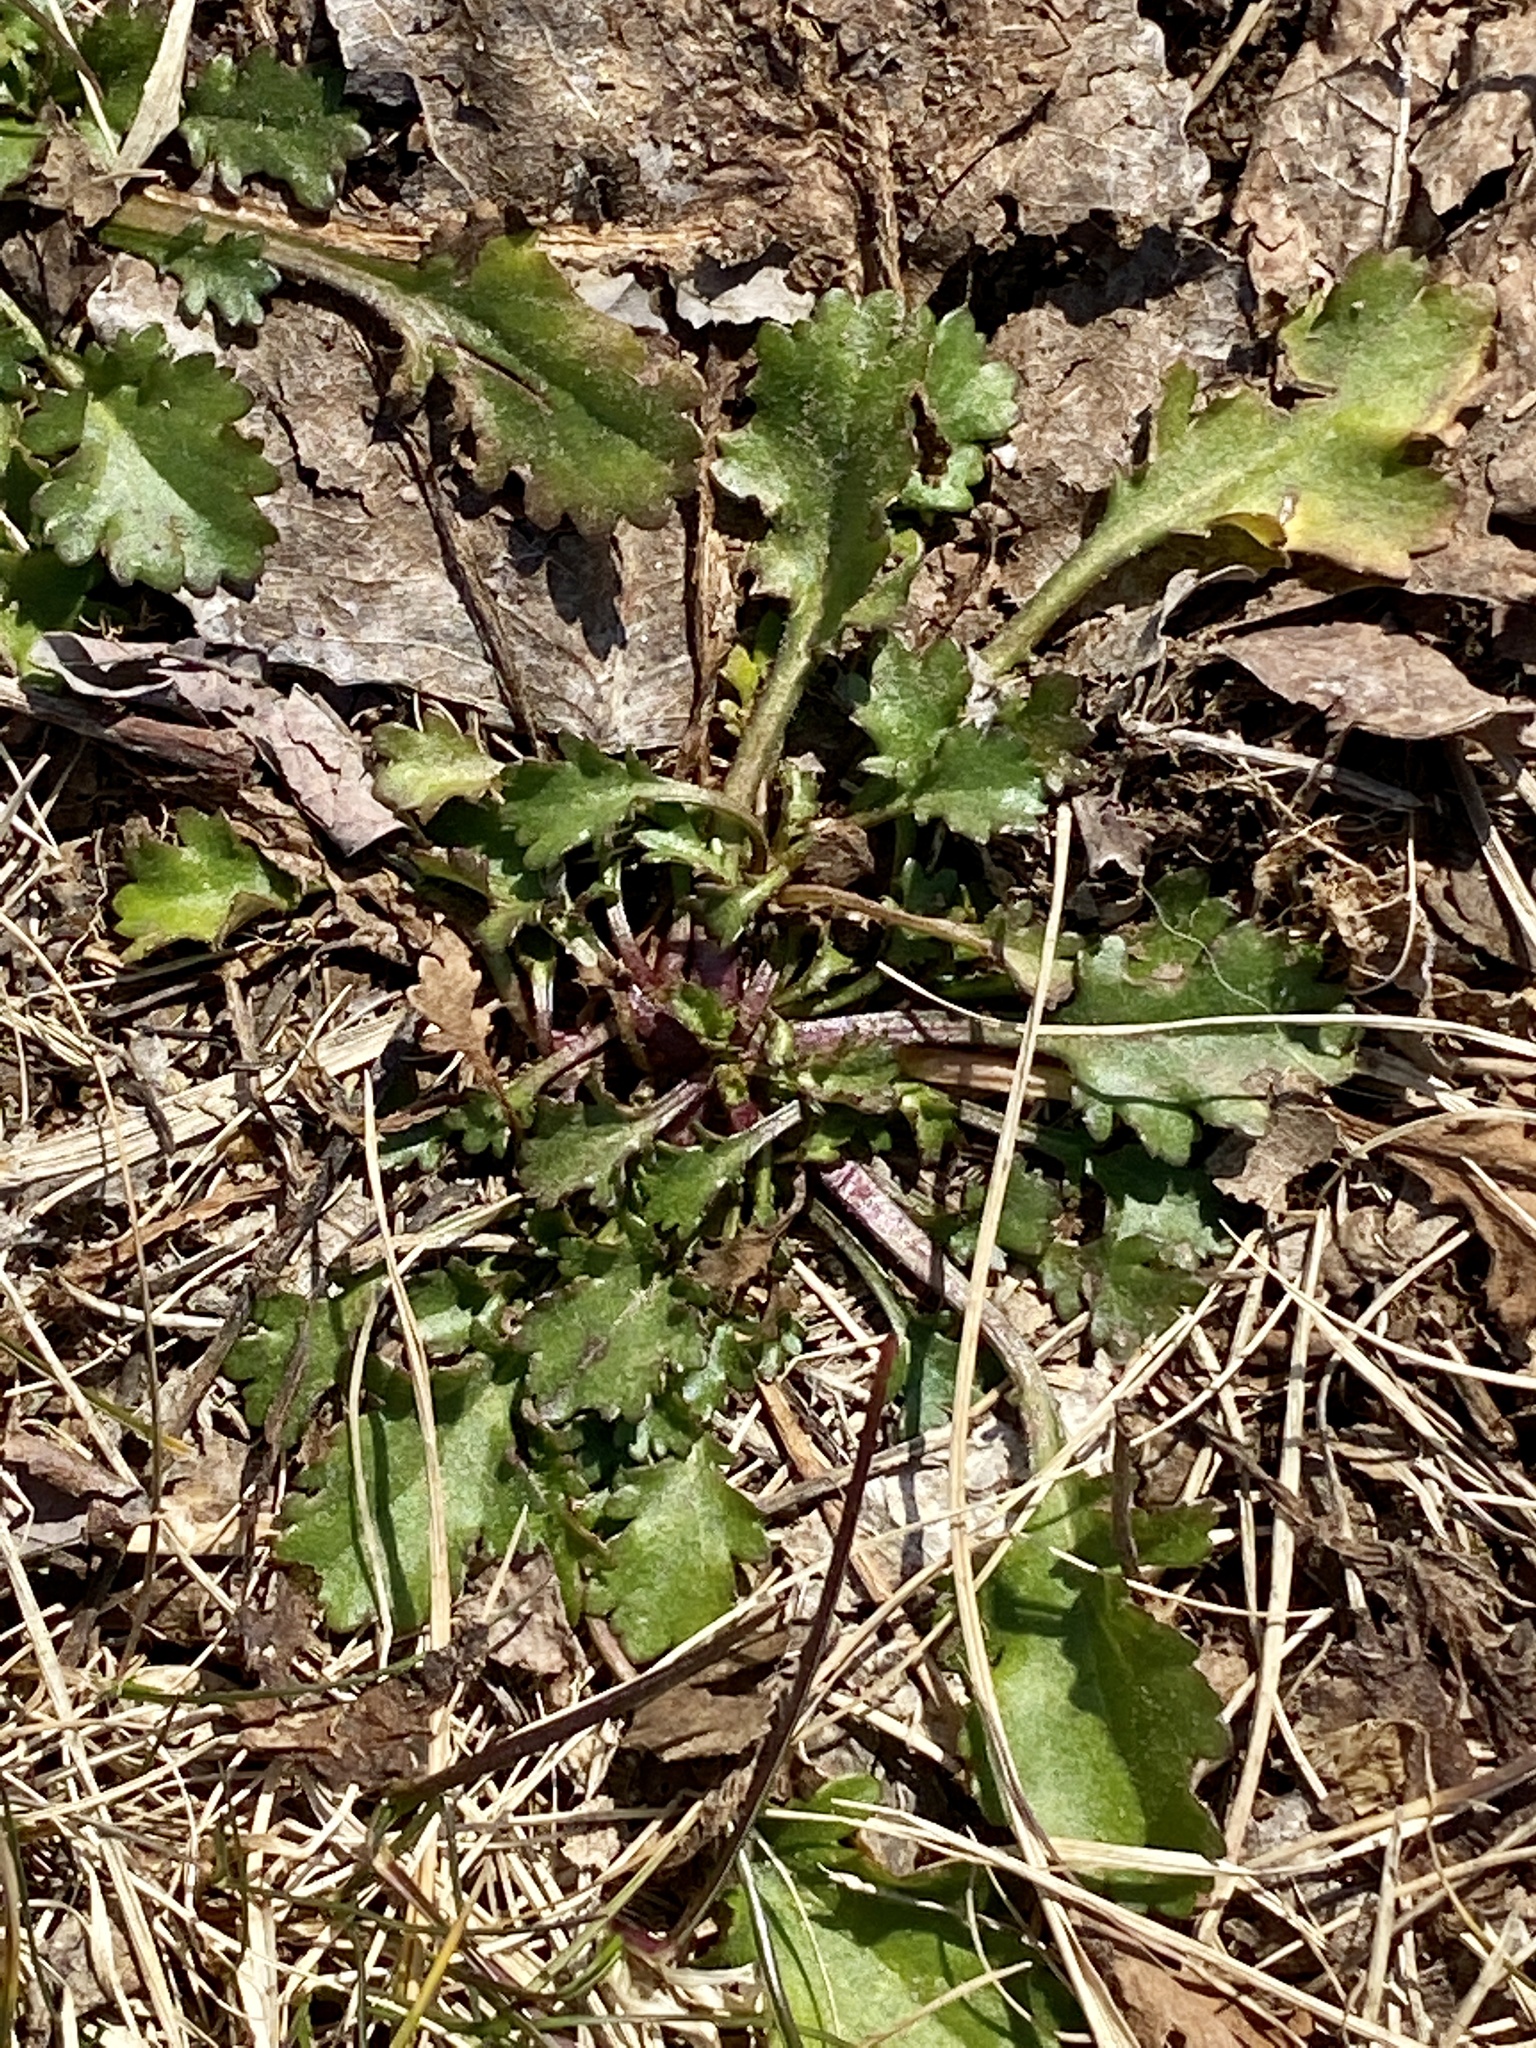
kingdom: Plantae
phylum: Tracheophyta
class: Magnoliopsida
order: Asterales
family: Asteraceae
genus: Leucanthemum
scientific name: Leucanthemum vulgare
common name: Oxeye daisy
